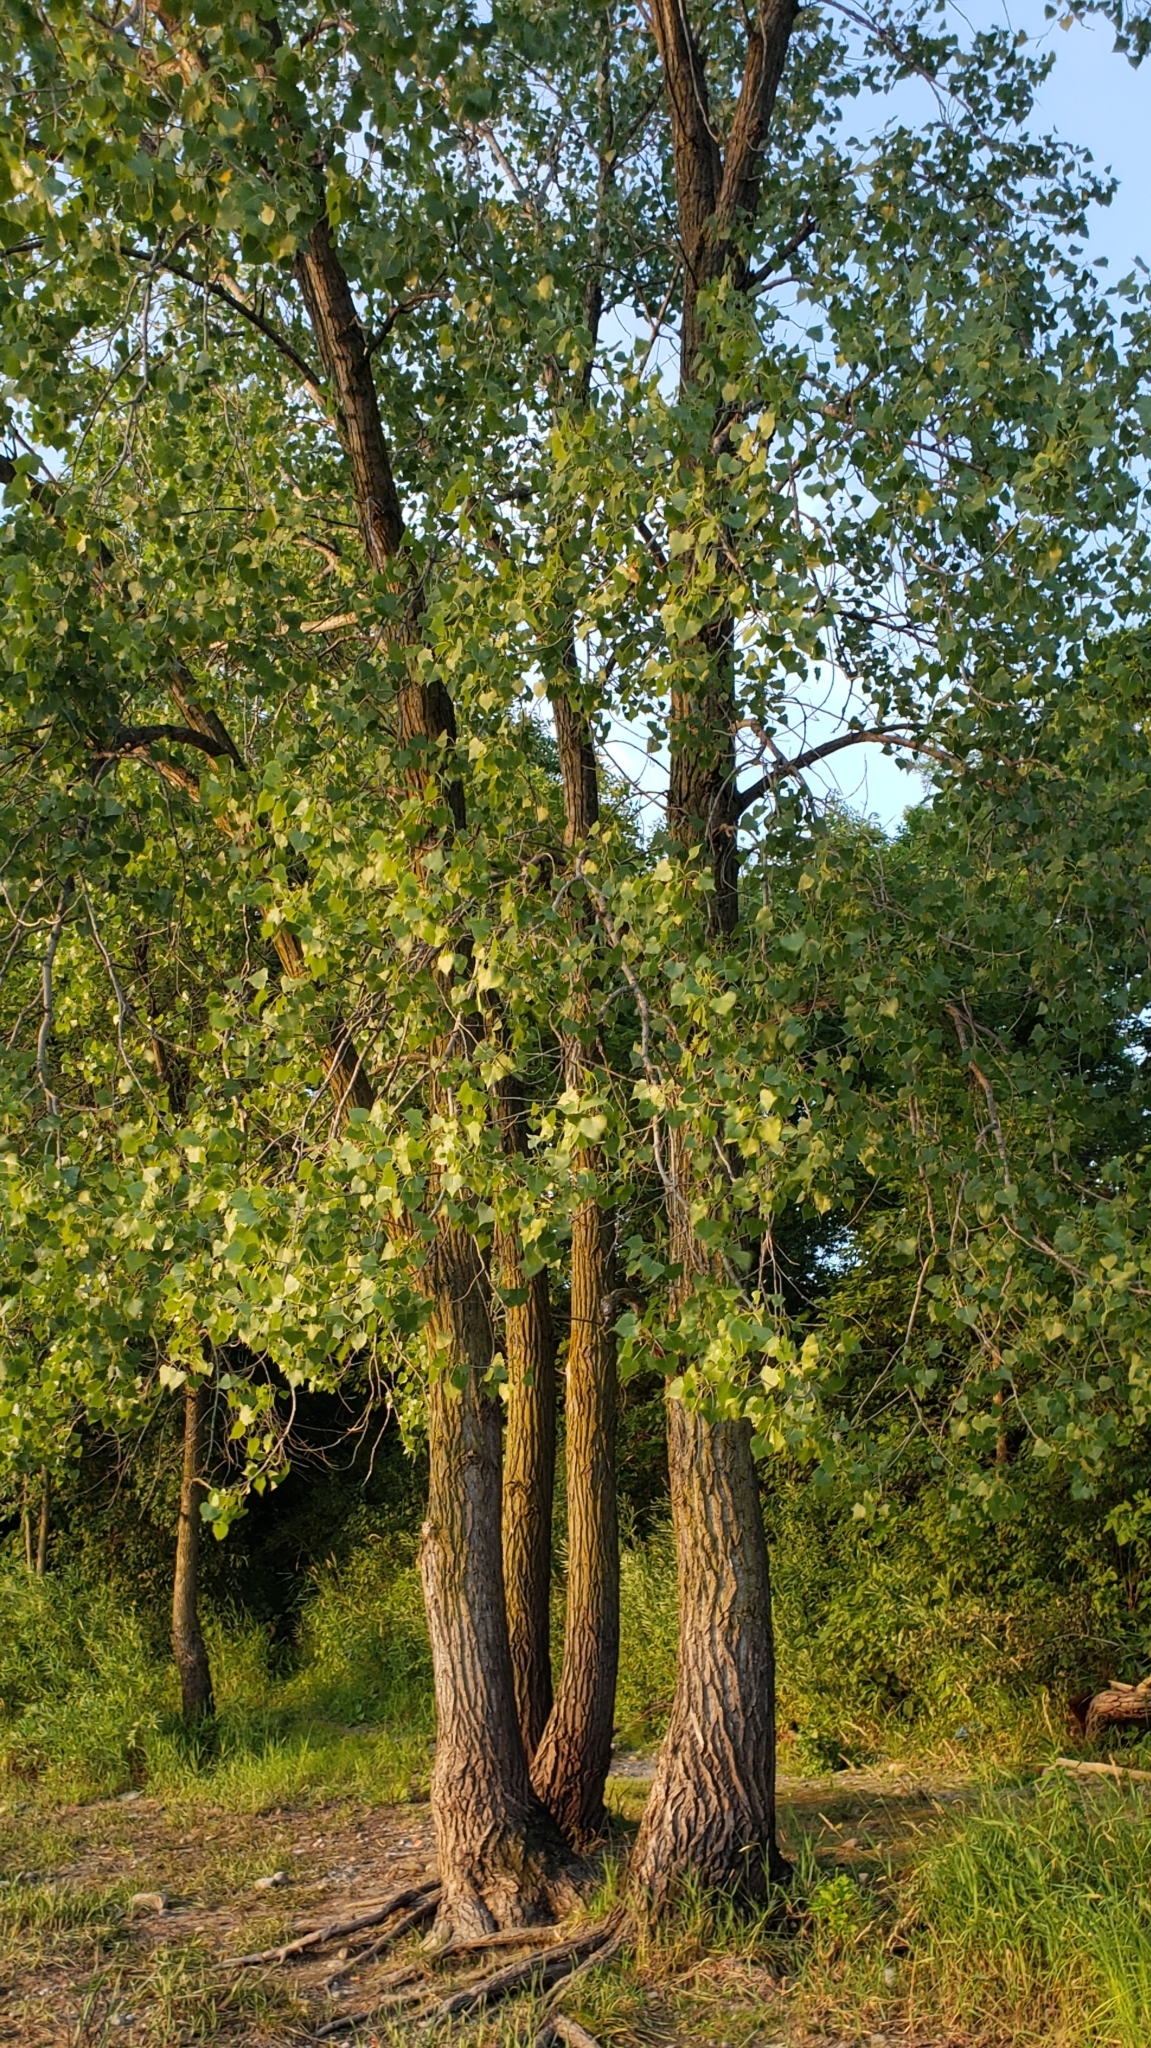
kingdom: Plantae
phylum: Tracheophyta
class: Magnoliopsida
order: Malpighiales
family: Salicaceae
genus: Populus
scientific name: Populus deltoides
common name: Eastern cottonwood
